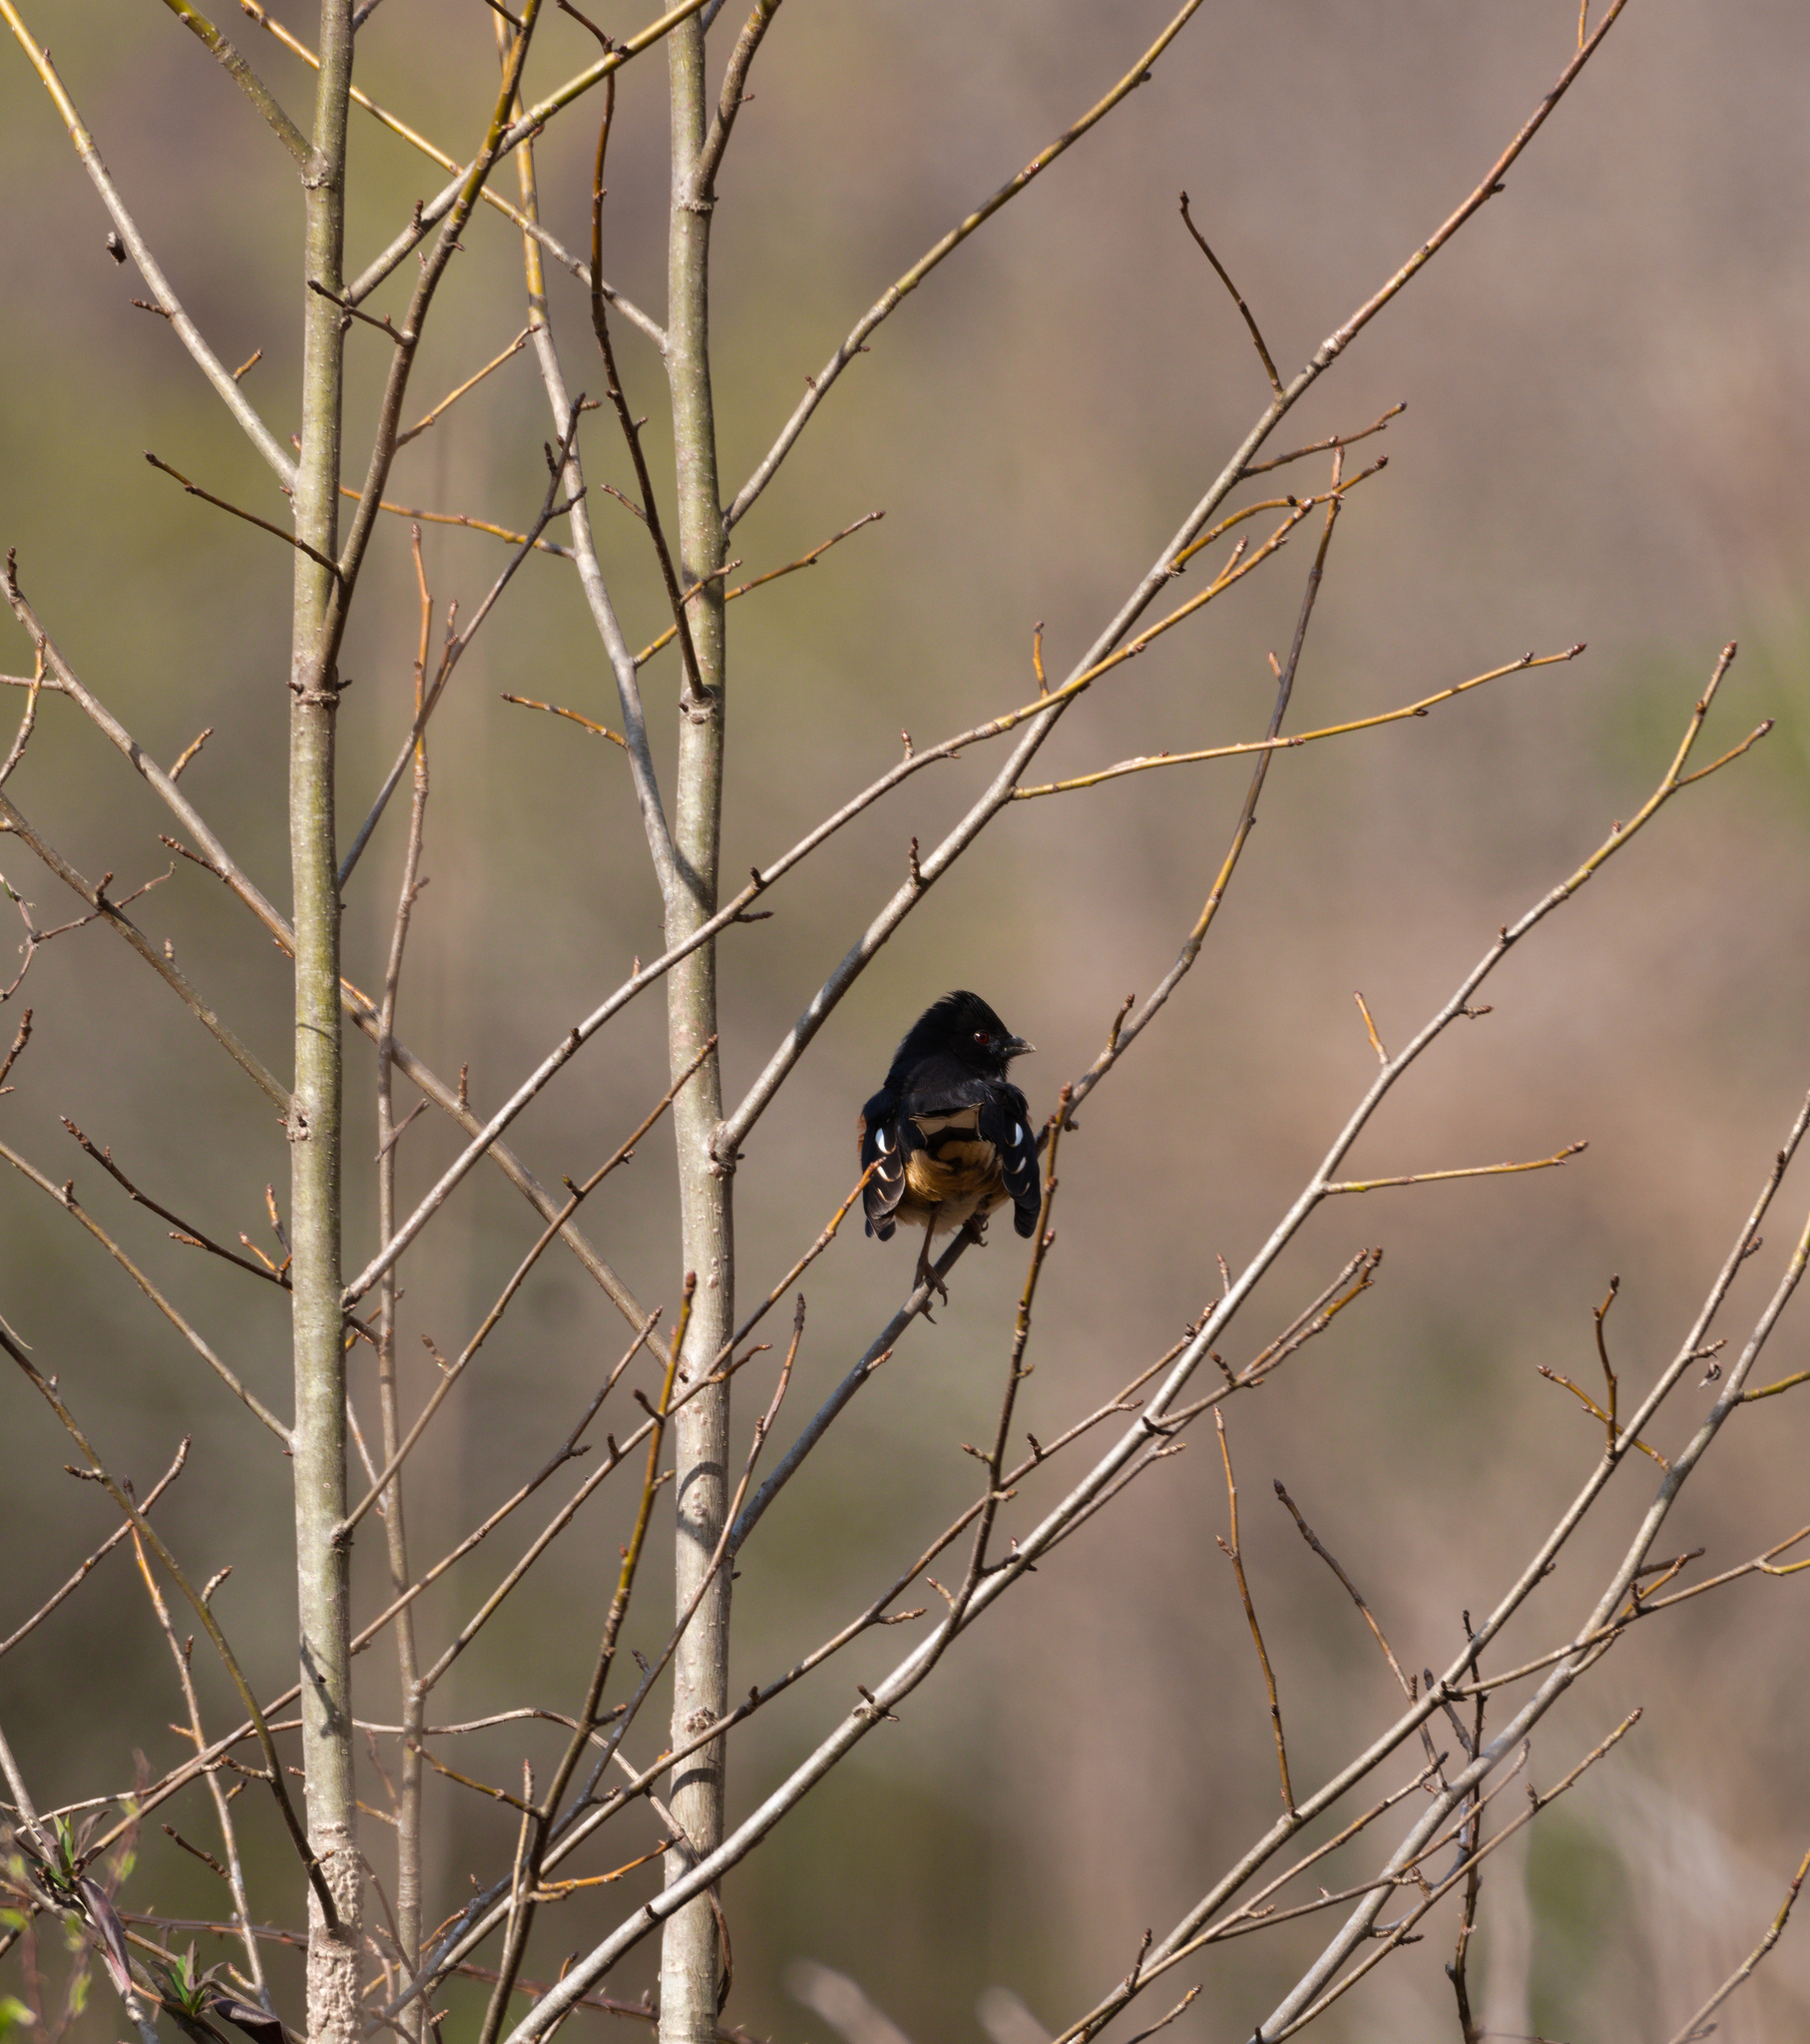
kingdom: Animalia
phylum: Chordata
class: Aves
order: Passeriformes
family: Passerellidae
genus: Pipilo
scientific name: Pipilo erythrophthalmus
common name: Eastern towhee
